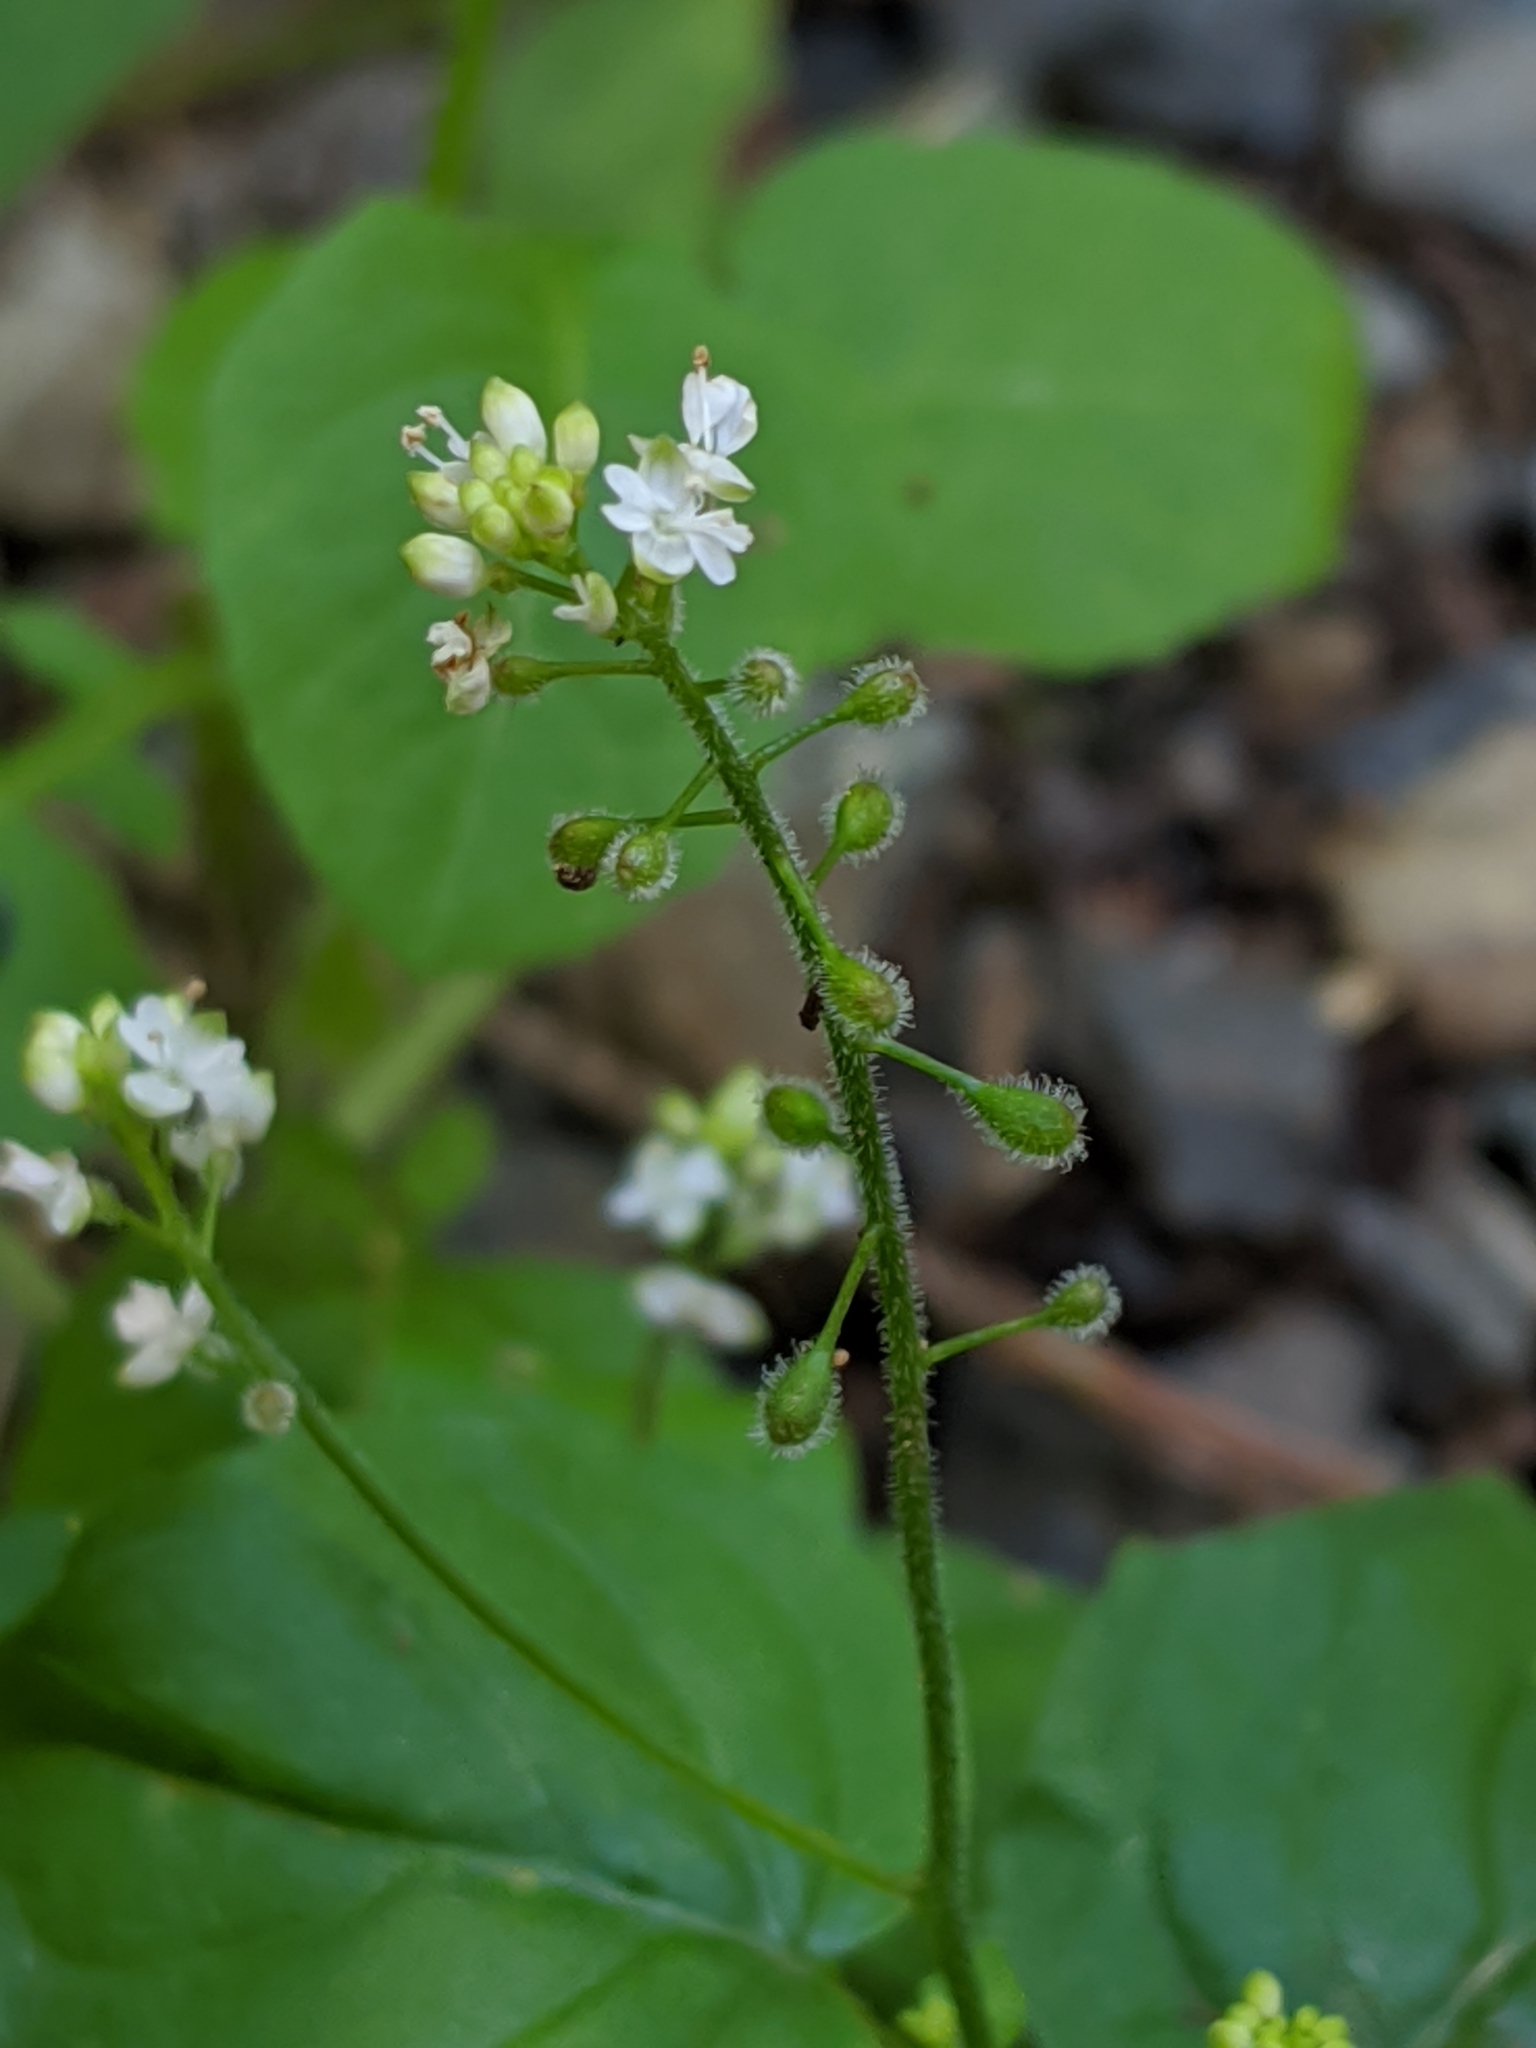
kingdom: Plantae
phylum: Tracheophyta
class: Magnoliopsida
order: Myrtales
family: Onagraceae
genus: Circaea
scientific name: Circaea alpina
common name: Alpine enchanter's-nightshade
